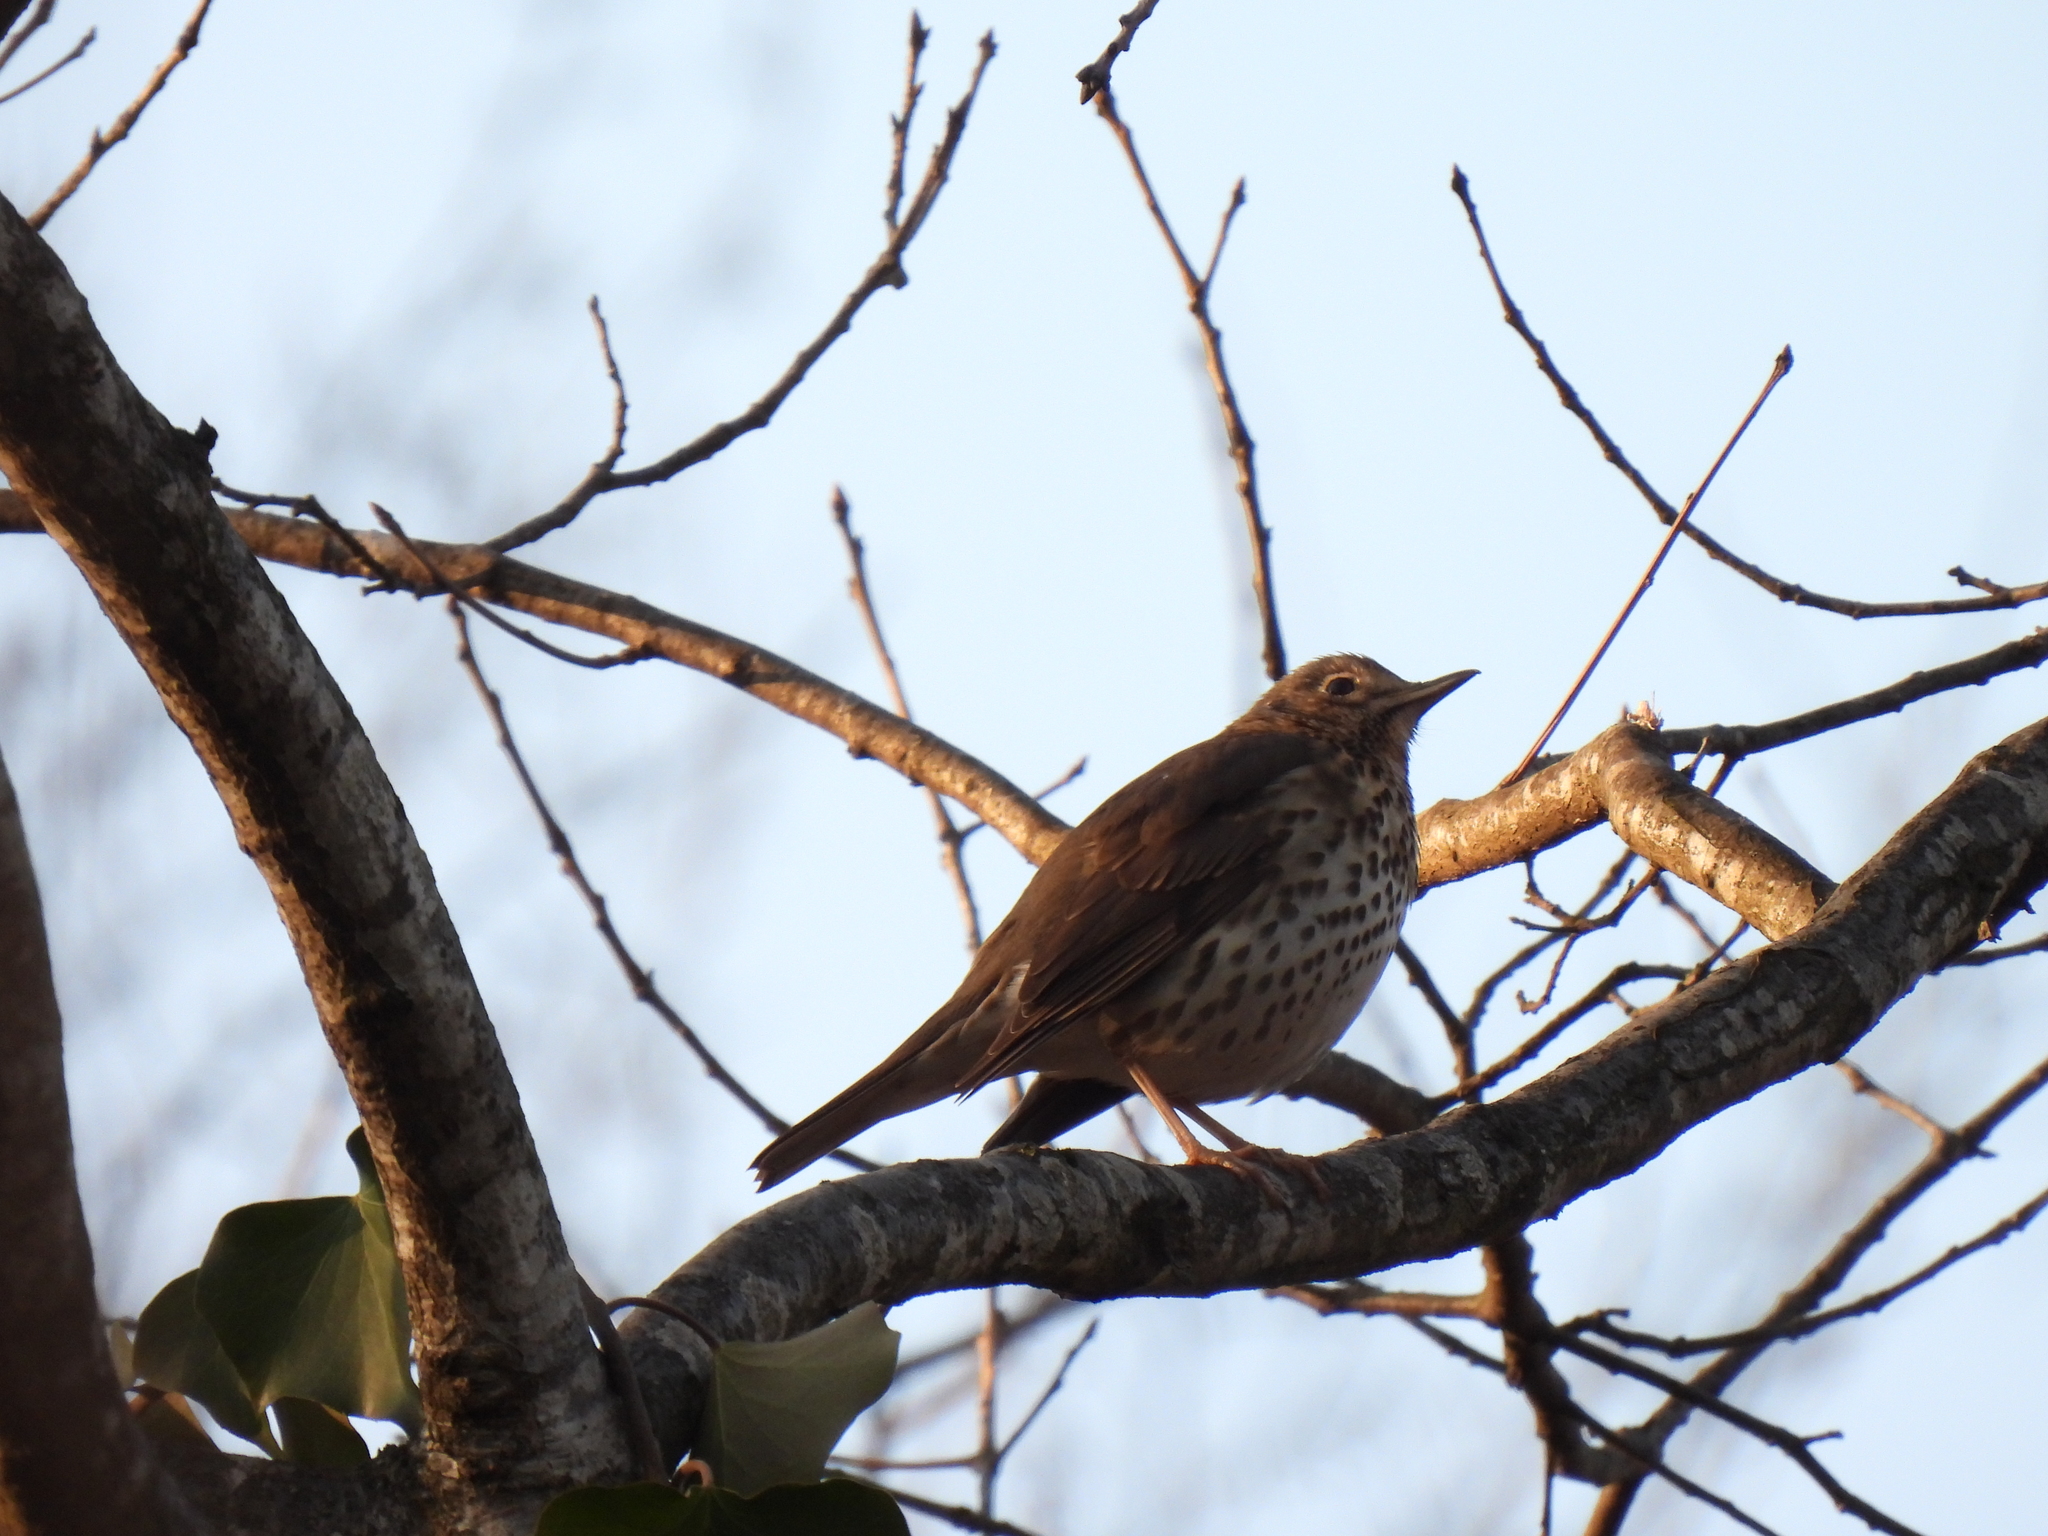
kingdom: Animalia
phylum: Chordata
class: Aves
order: Passeriformes
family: Turdidae
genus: Turdus
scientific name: Turdus philomelos
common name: Song thrush
